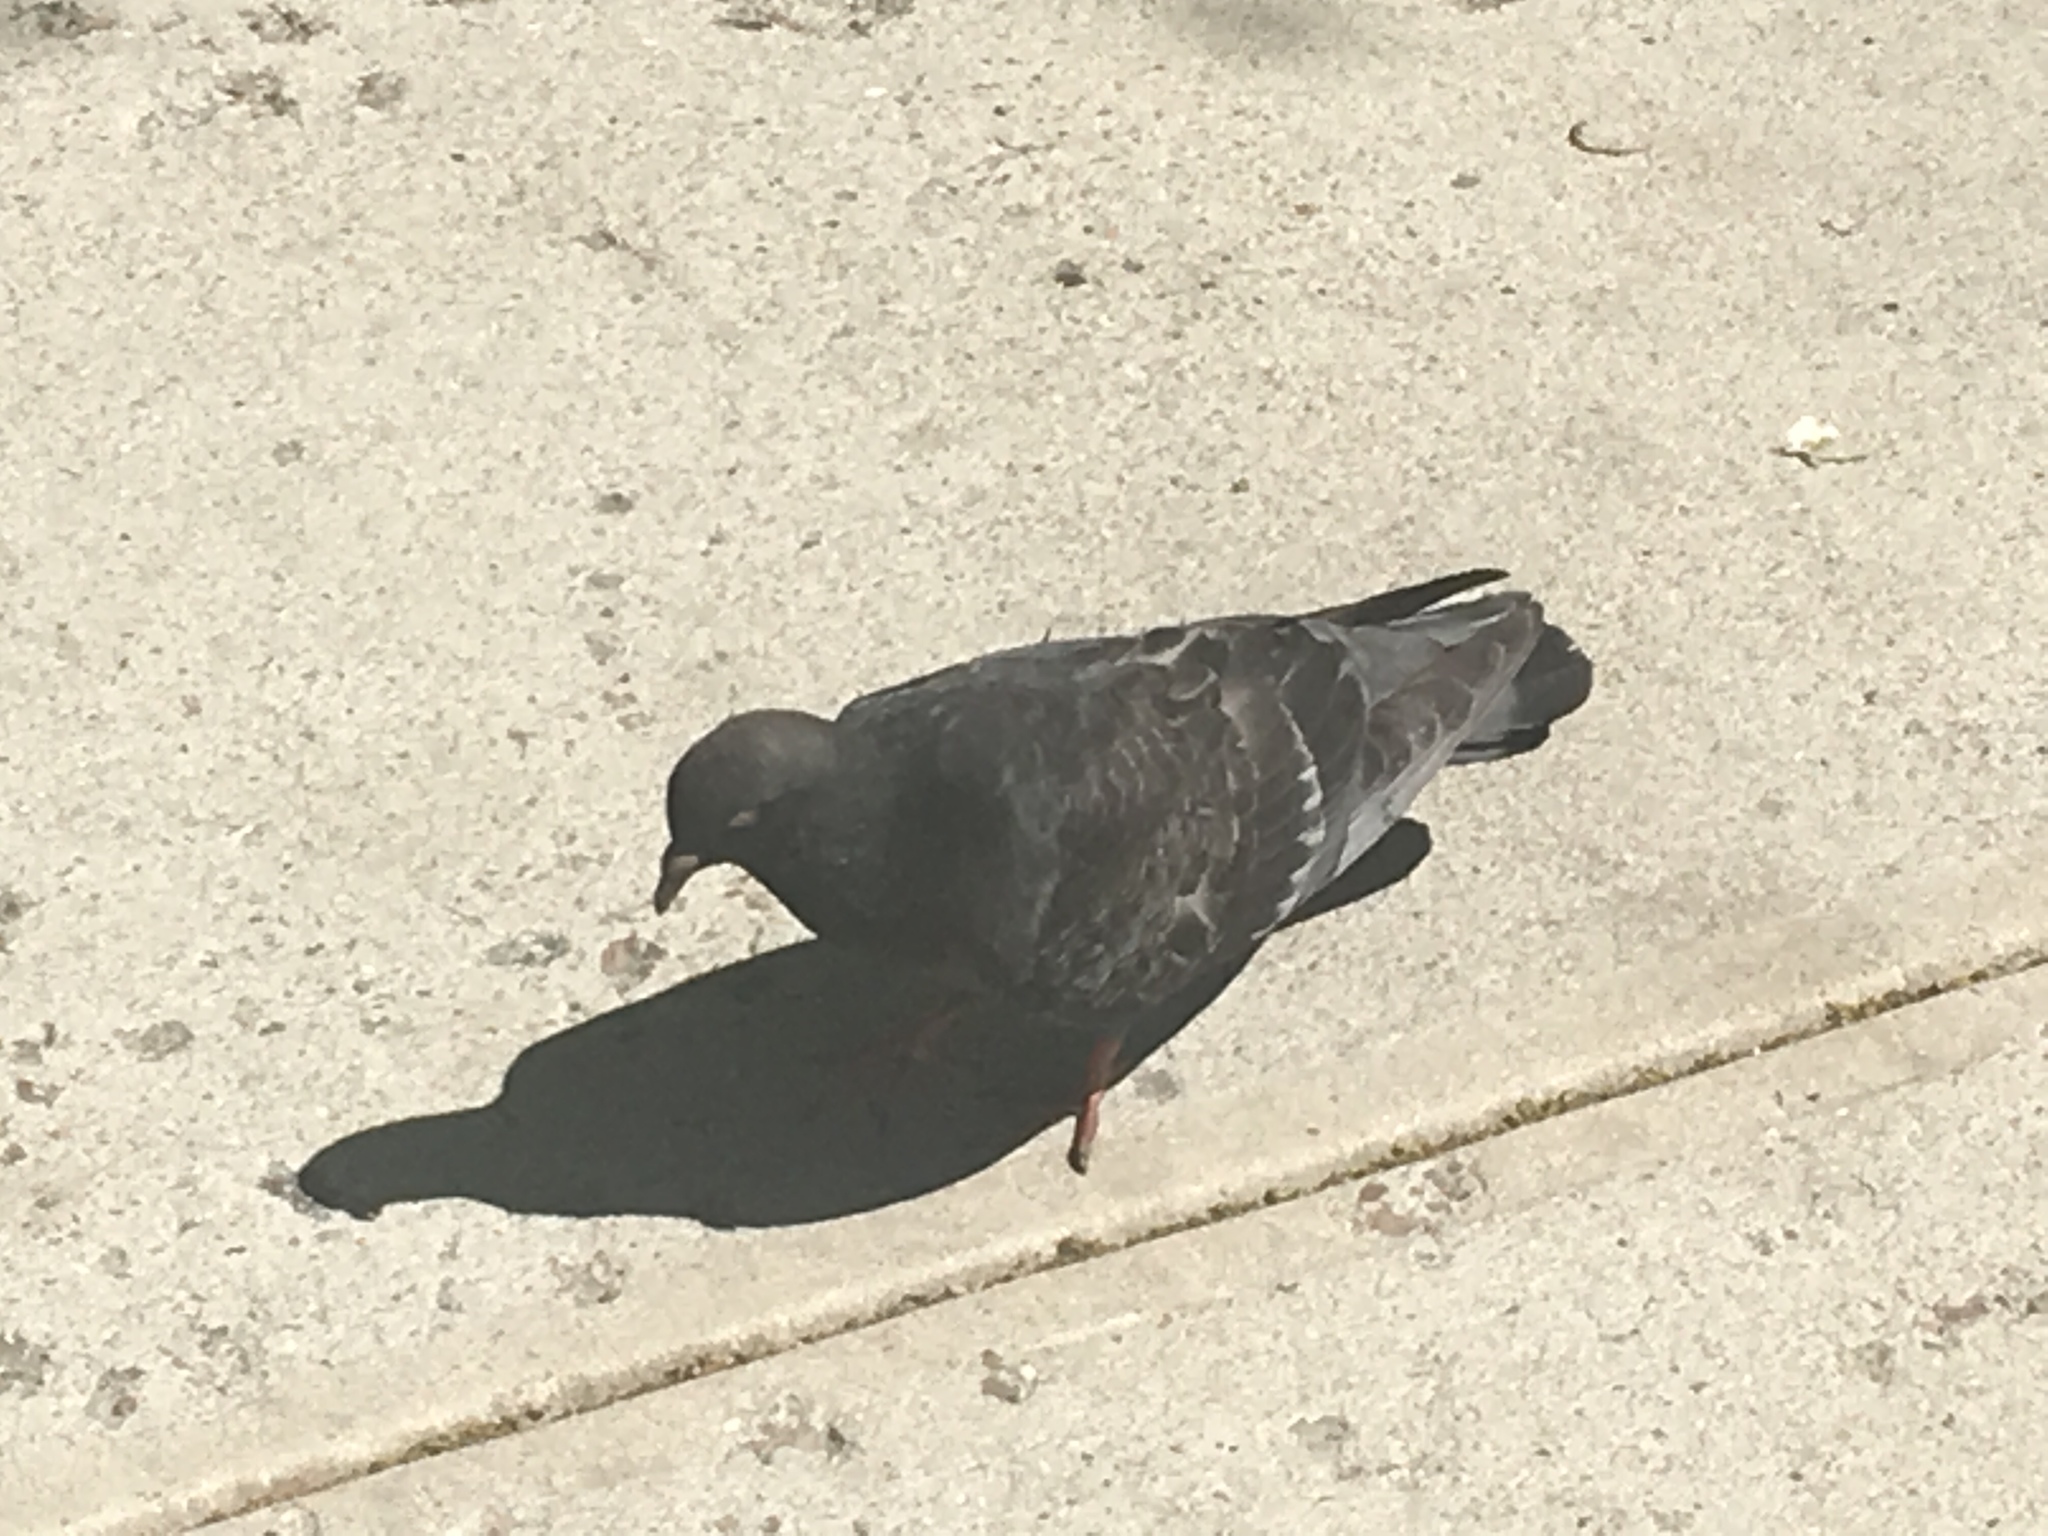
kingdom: Animalia
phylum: Chordata
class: Aves
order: Columbiformes
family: Columbidae
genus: Columba
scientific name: Columba livia
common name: Rock pigeon
